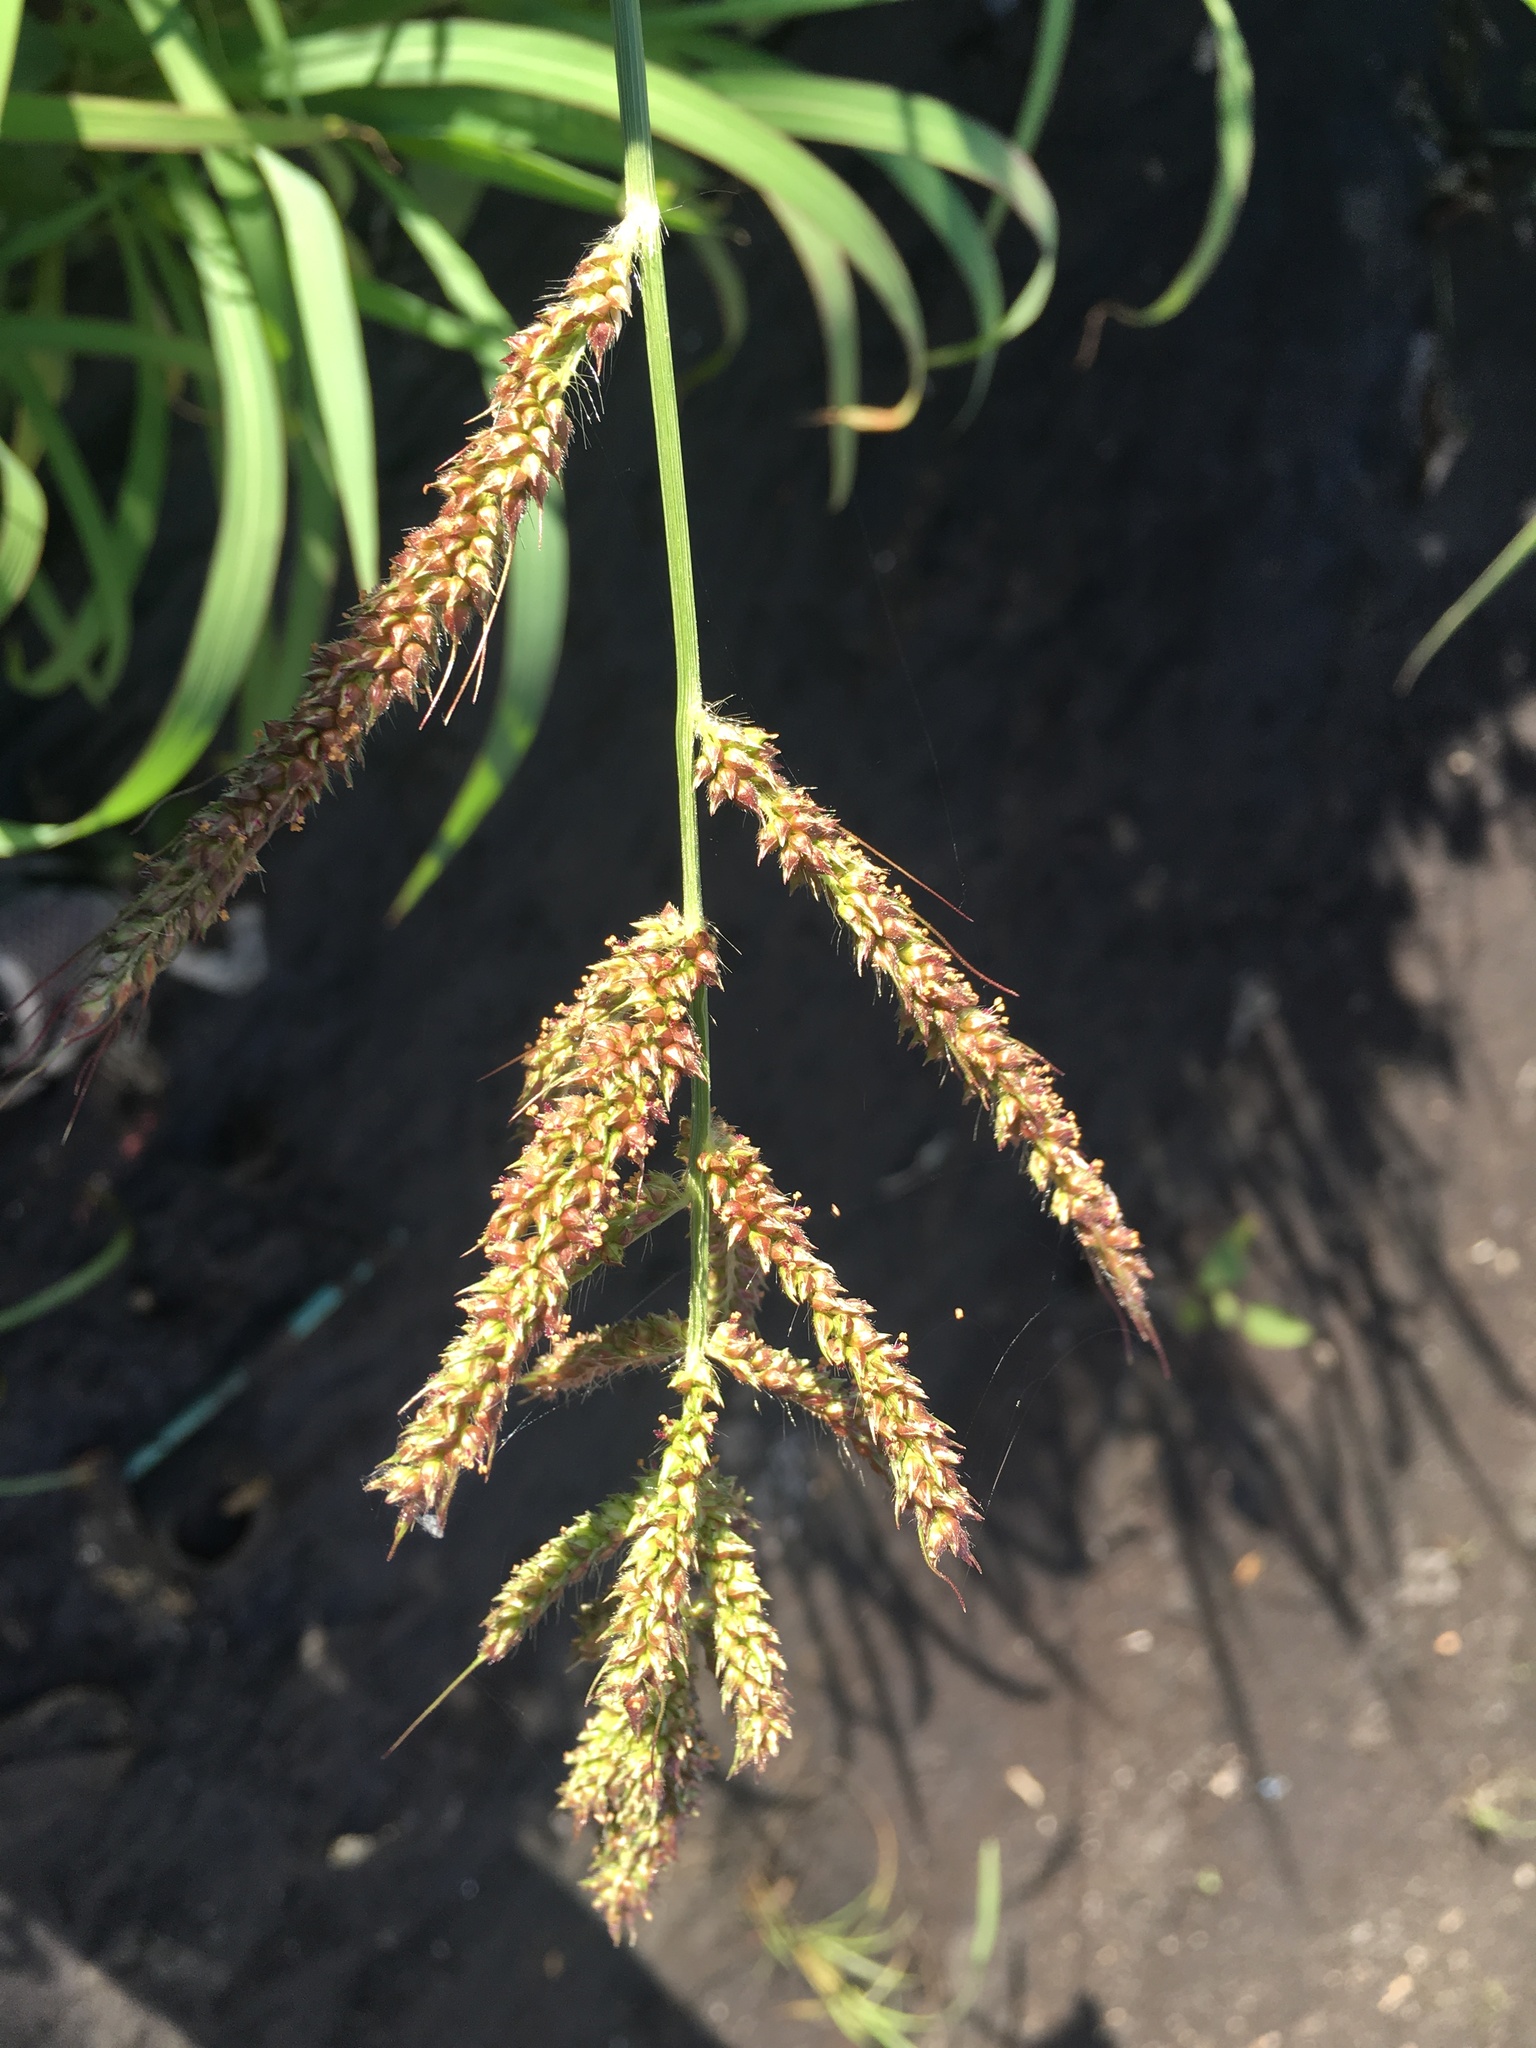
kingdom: Plantae
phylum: Tracheophyta
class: Liliopsida
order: Poales
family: Poaceae
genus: Echinochloa
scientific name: Echinochloa crus-galli
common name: Cockspur
